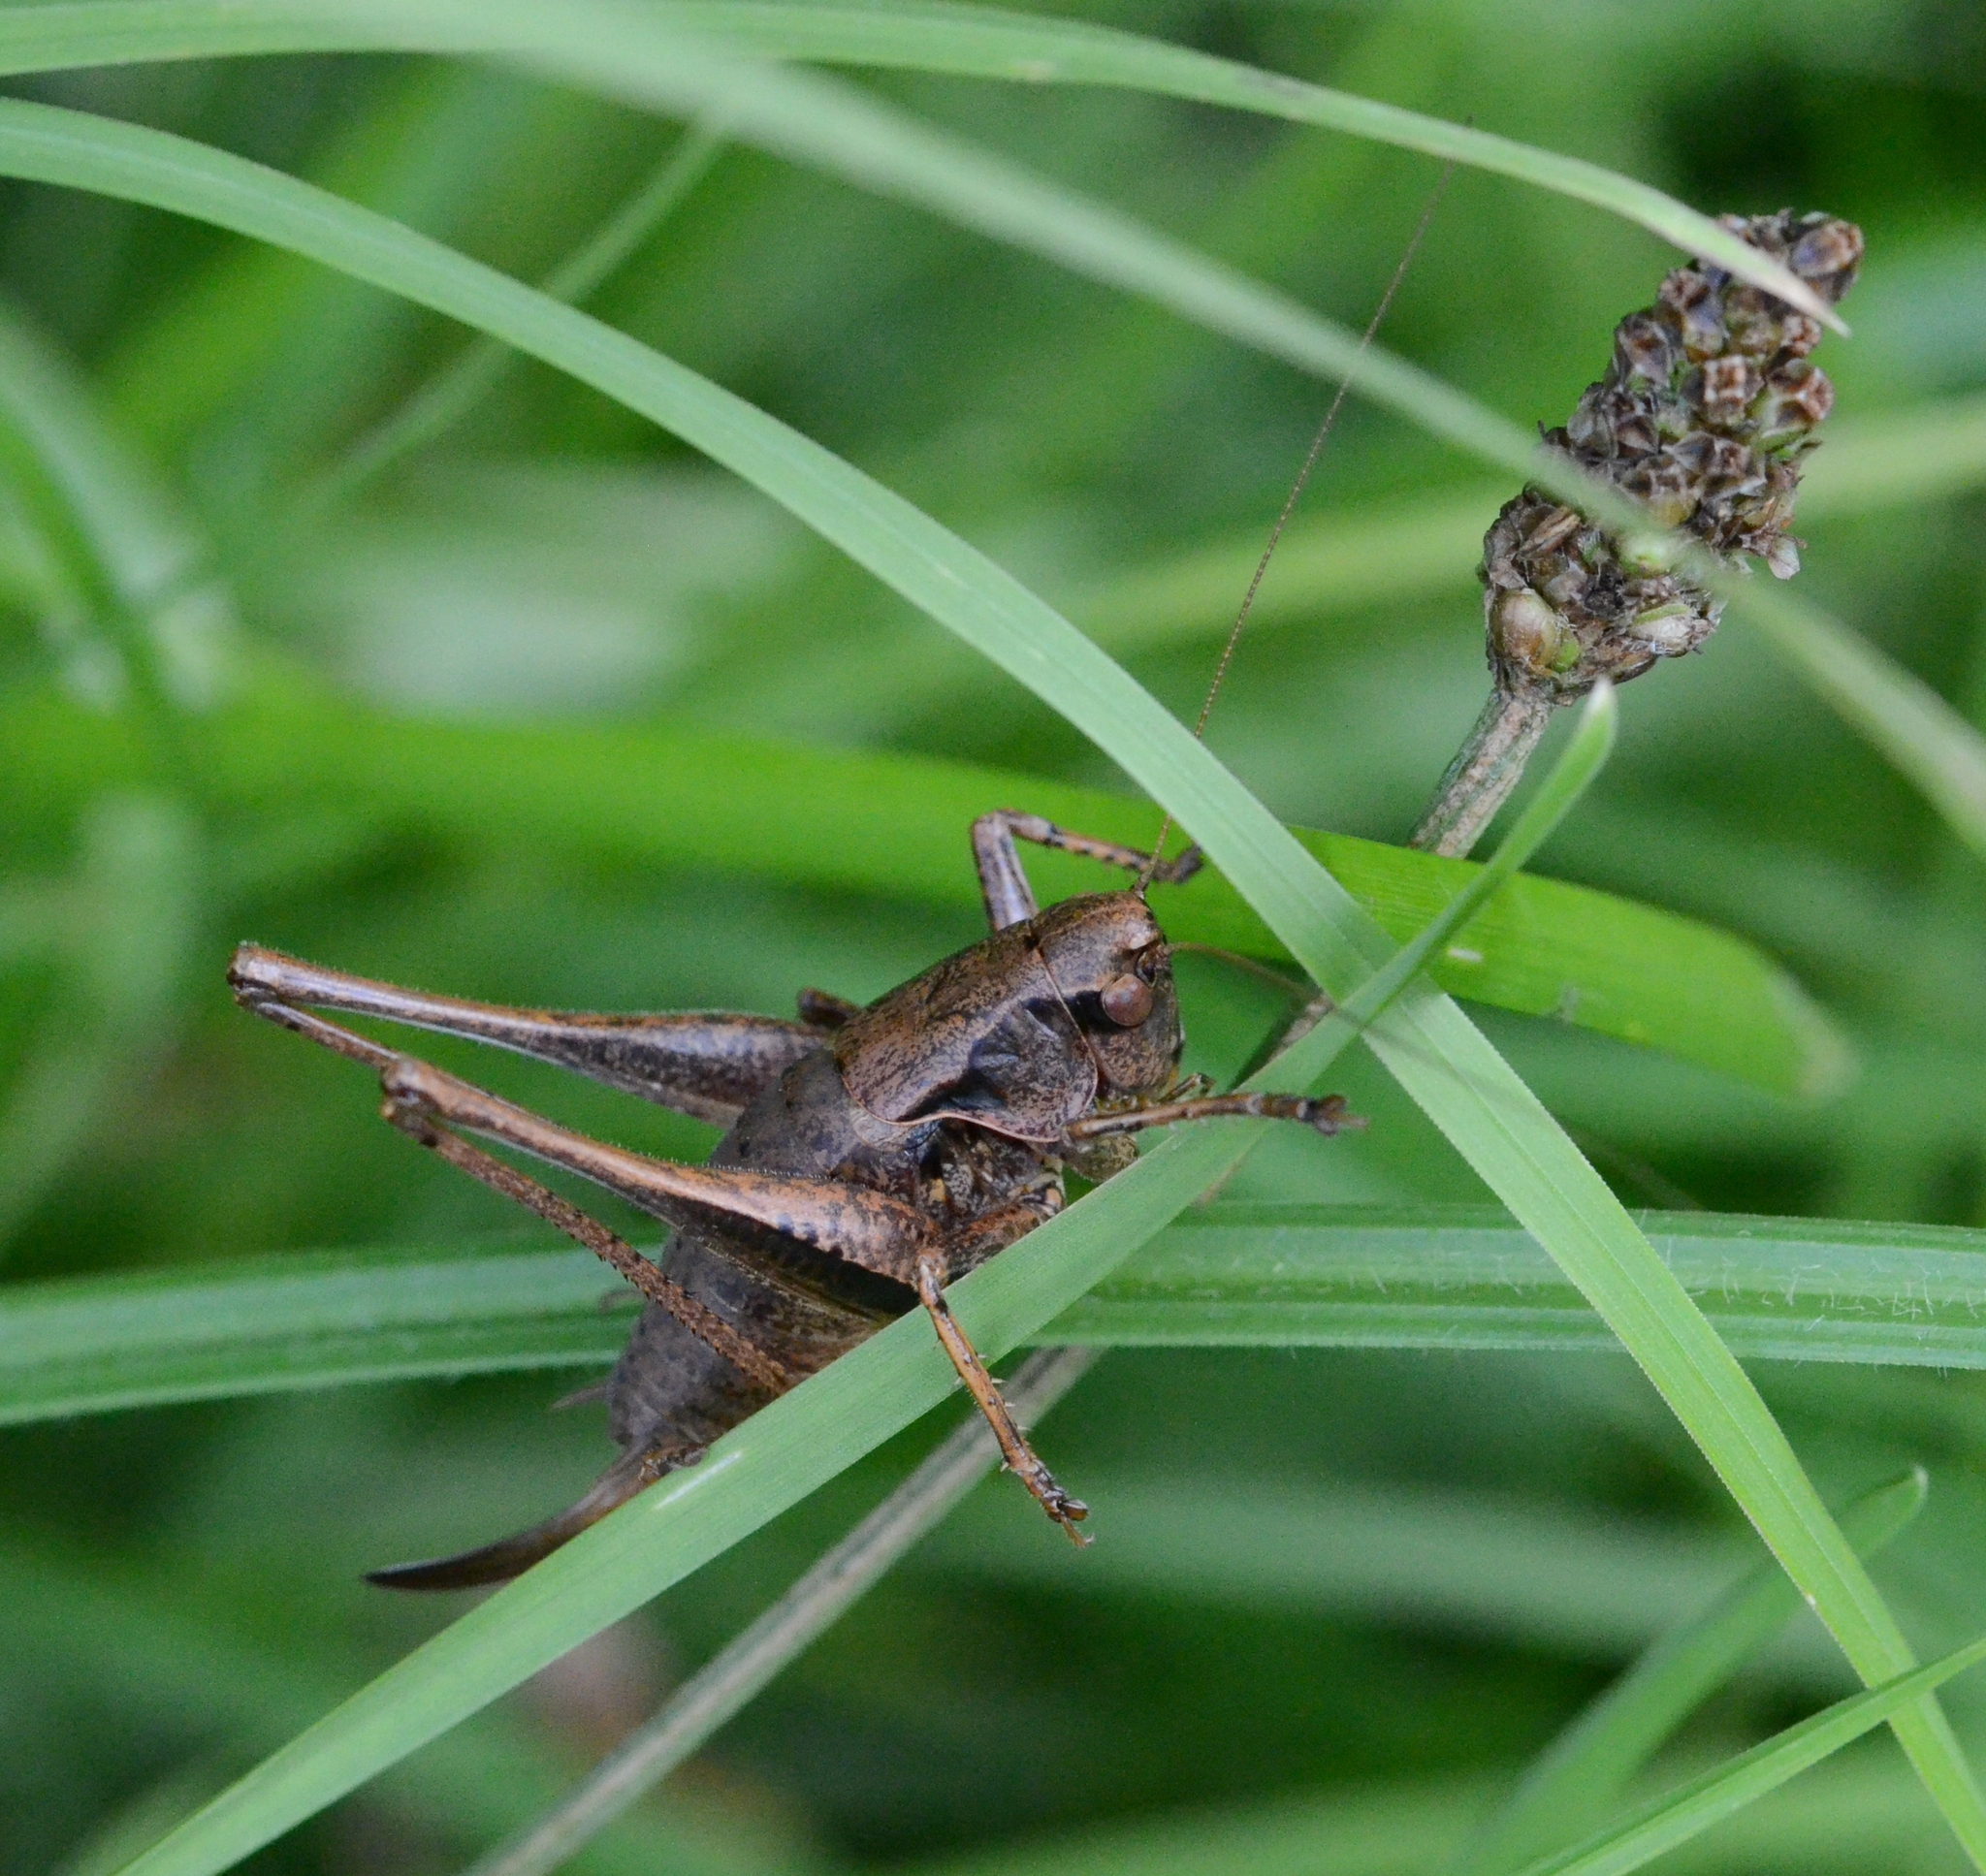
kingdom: Animalia
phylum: Arthropoda
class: Insecta
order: Orthoptera
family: Tettigoniidae
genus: Pholidoptera
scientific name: Pholidoptera griseoaptera
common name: Dark bush-cricket
